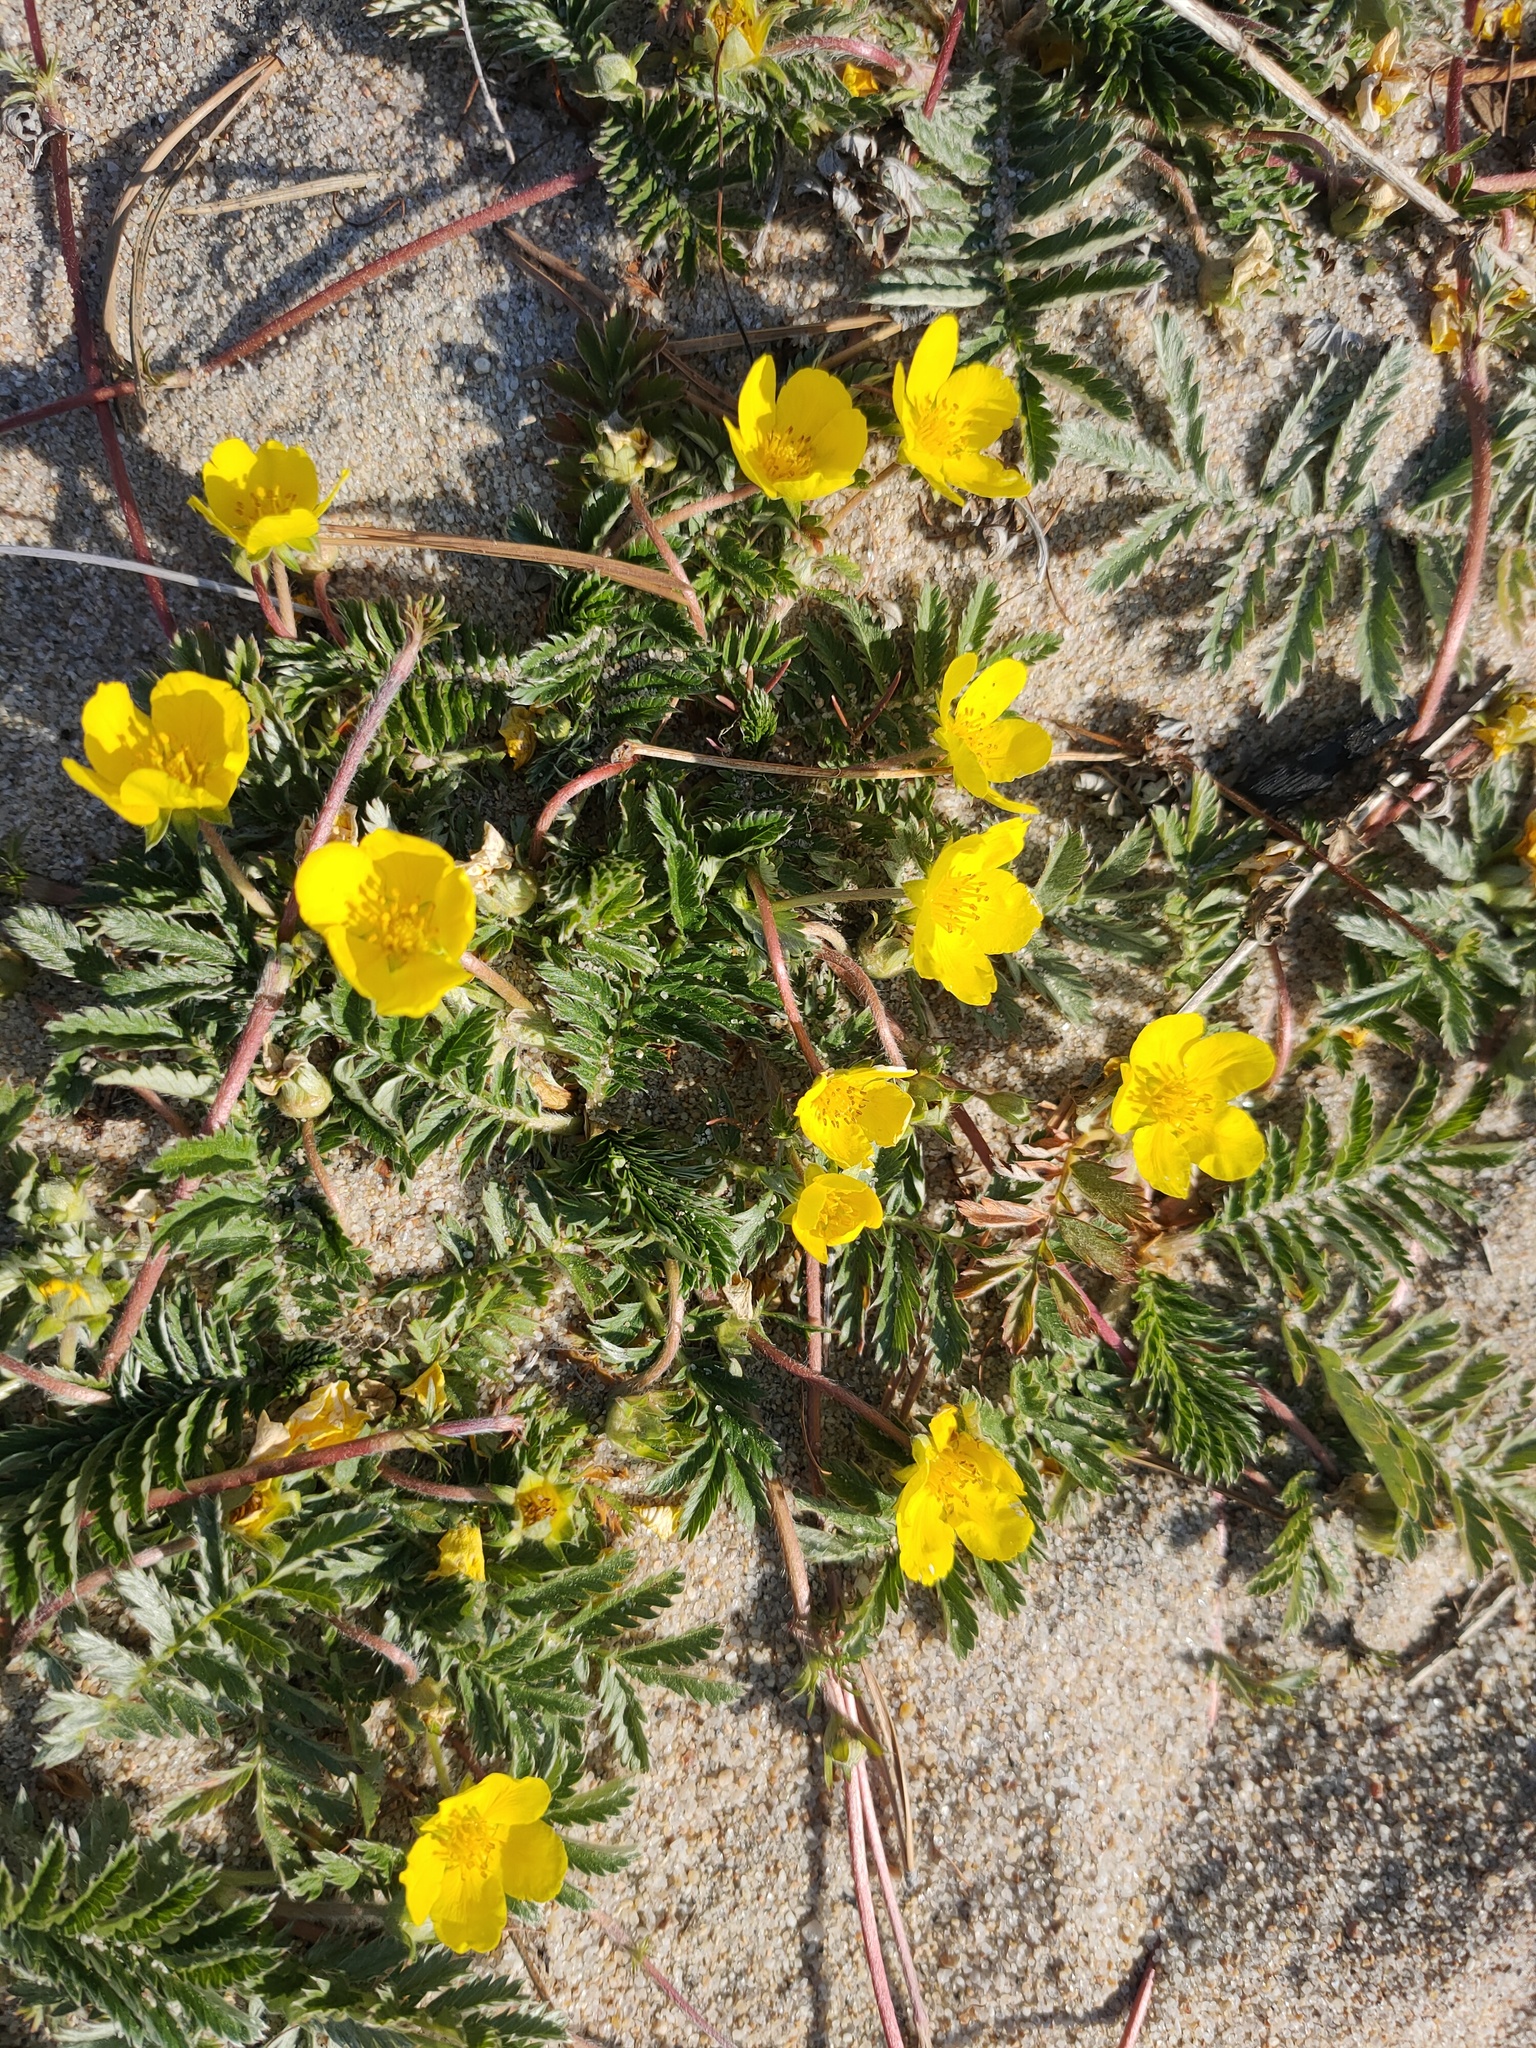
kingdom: Plantae
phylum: Tracheophyta
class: Magnoliopsida
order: Rosales
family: Rosaceae
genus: Argentina
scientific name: Argentina anserina
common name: Common silverweed
